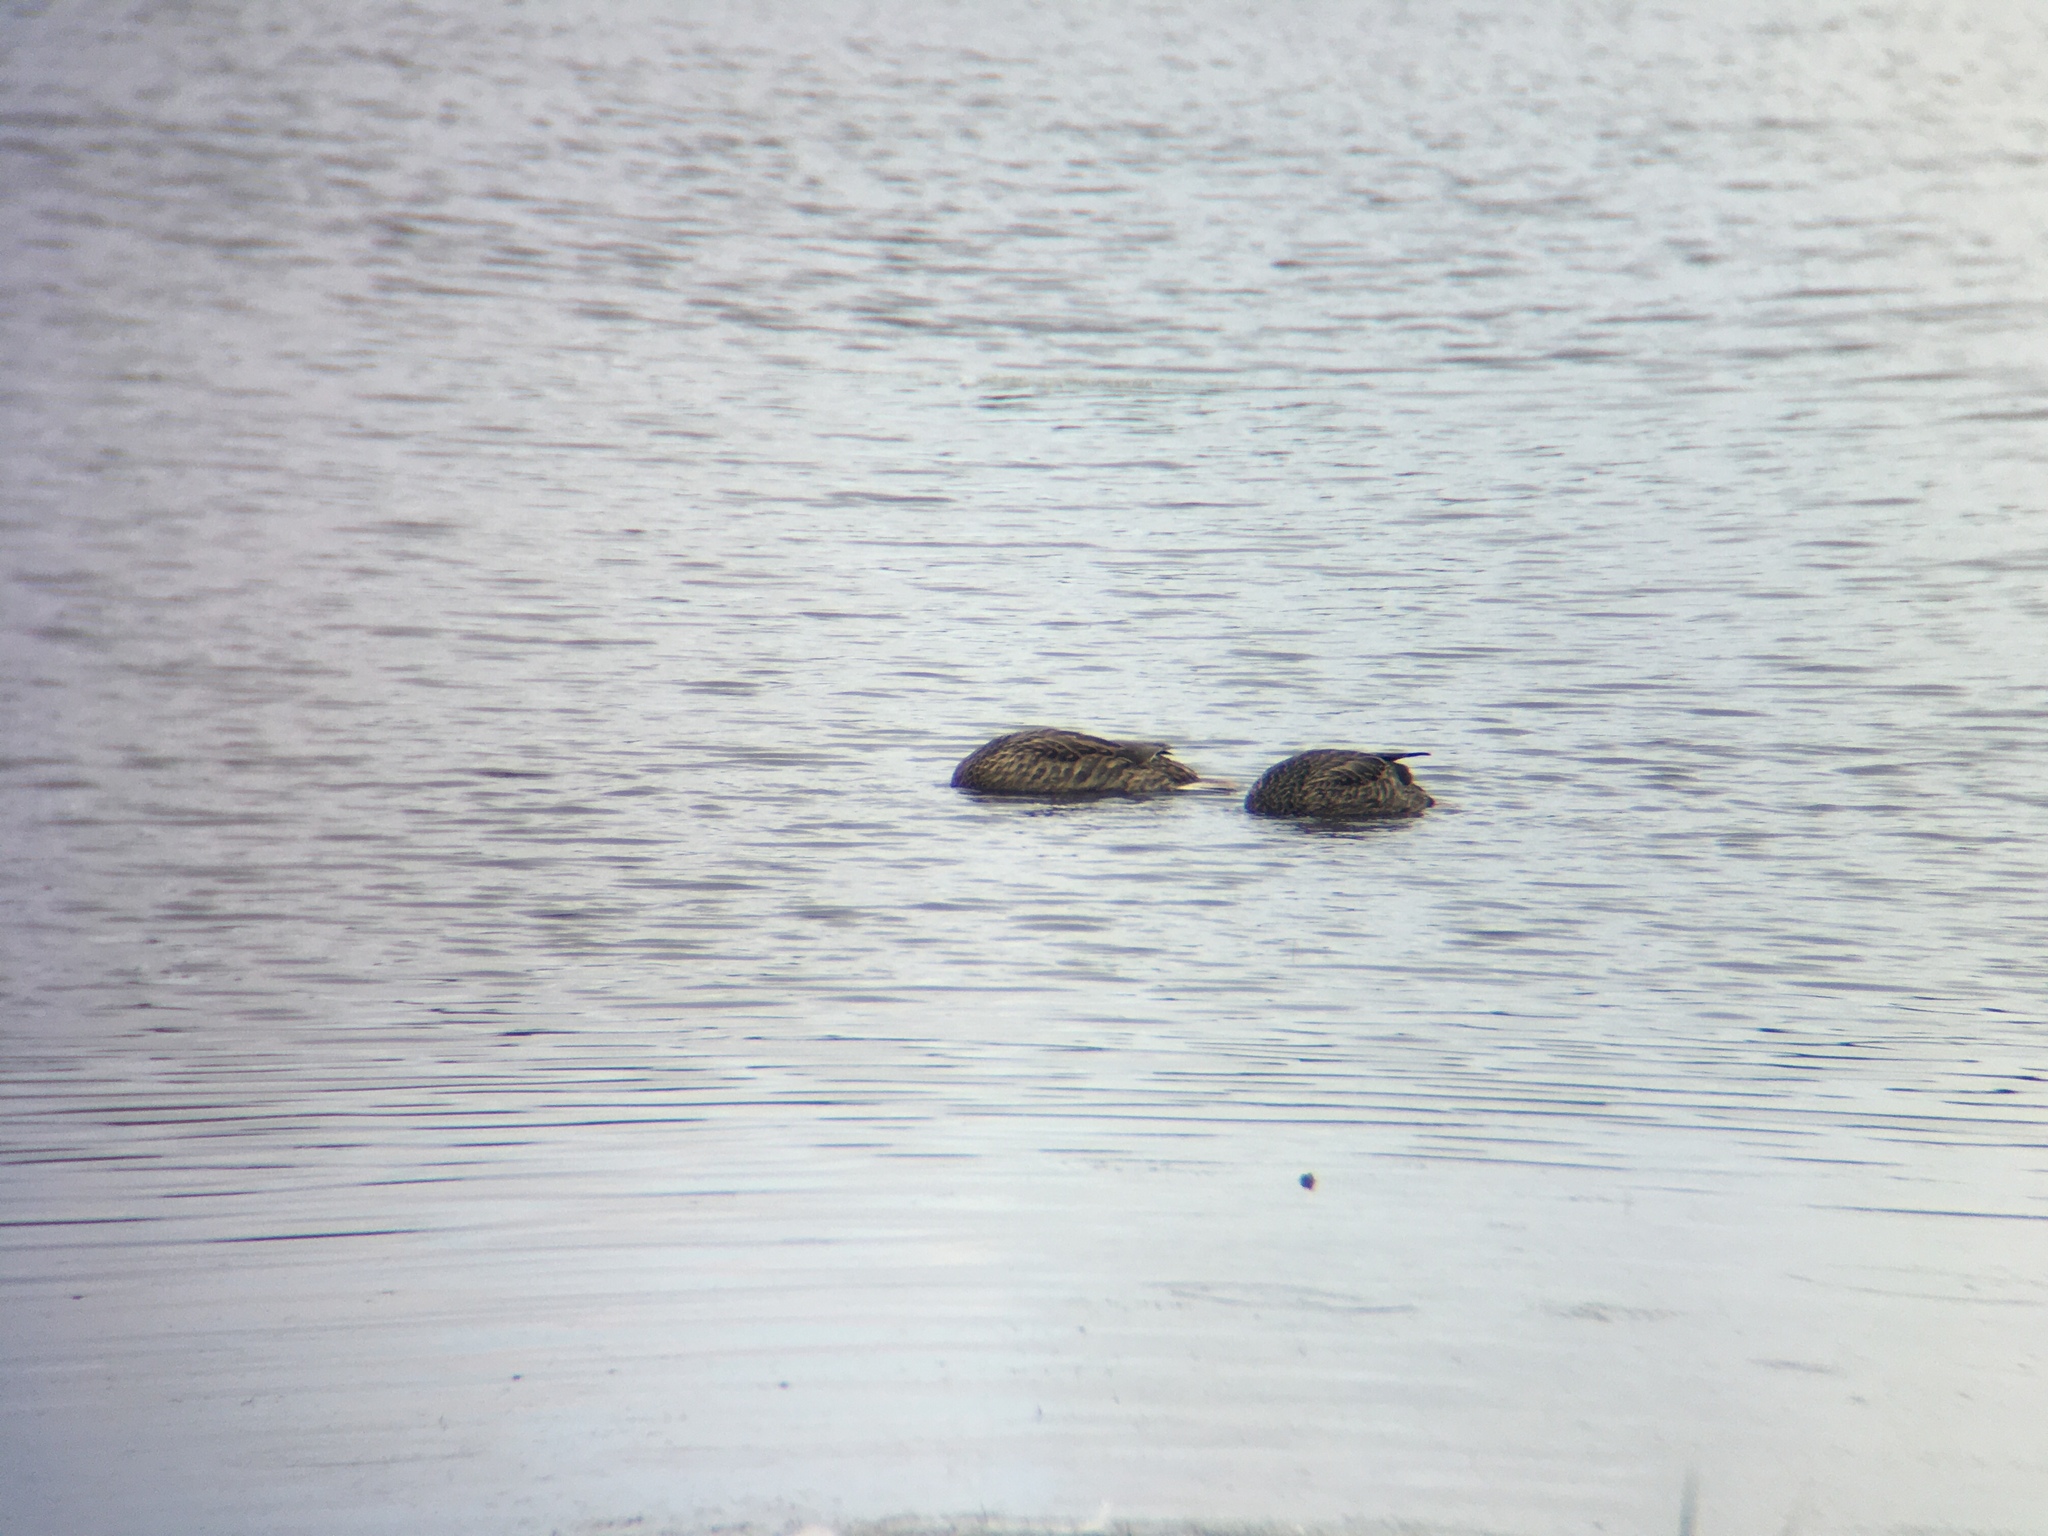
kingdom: Animalia
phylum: Chordata
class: Aves
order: Anseriformes
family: Anatidae
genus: Anas
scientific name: Anas platyrhynchos
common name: Mallard
